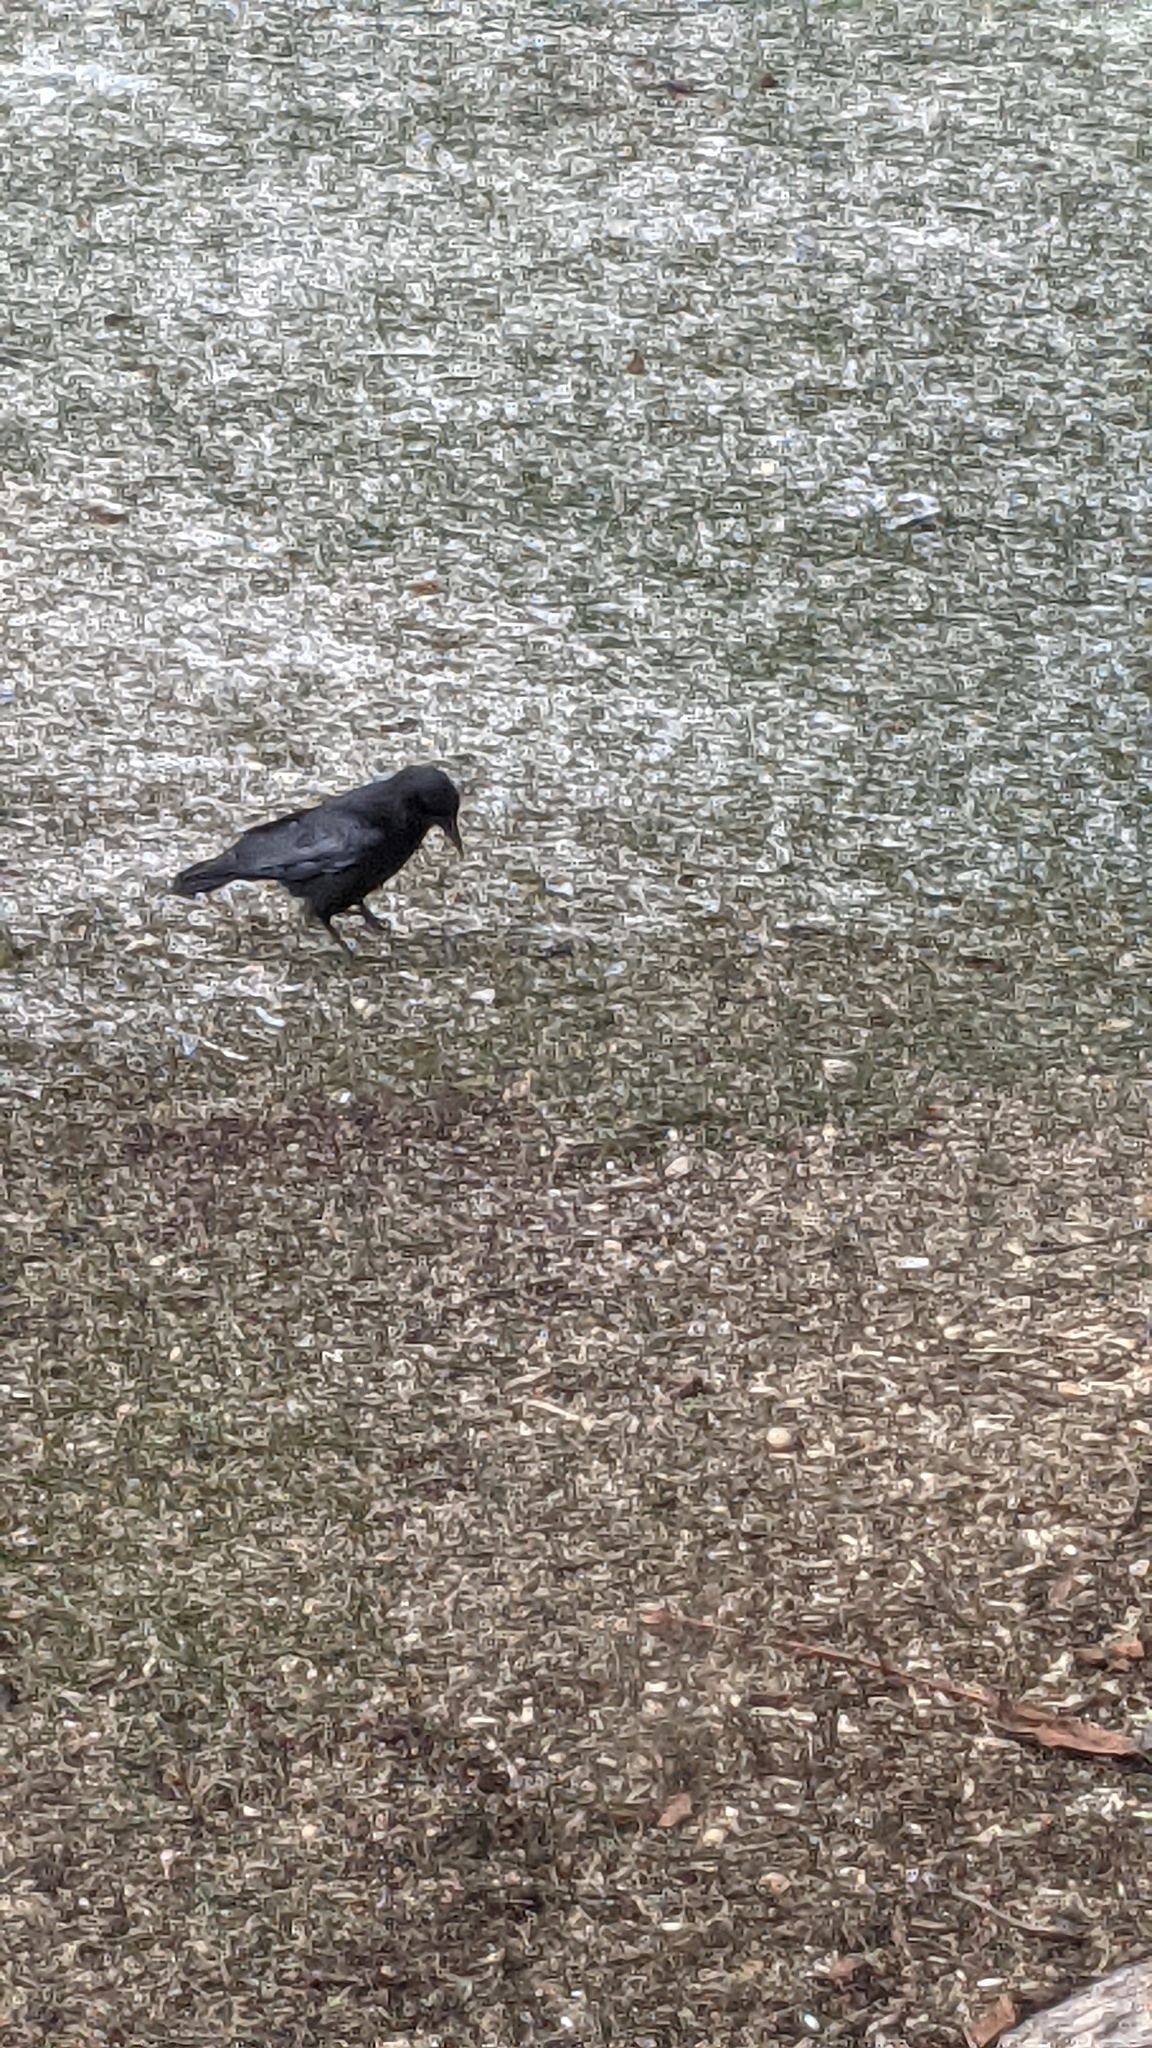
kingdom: Animalia
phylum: Chordata
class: Aves
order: Passeriformes
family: Corvidae
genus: Corvus
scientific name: Corvus brachyrhynchos
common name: American crow
